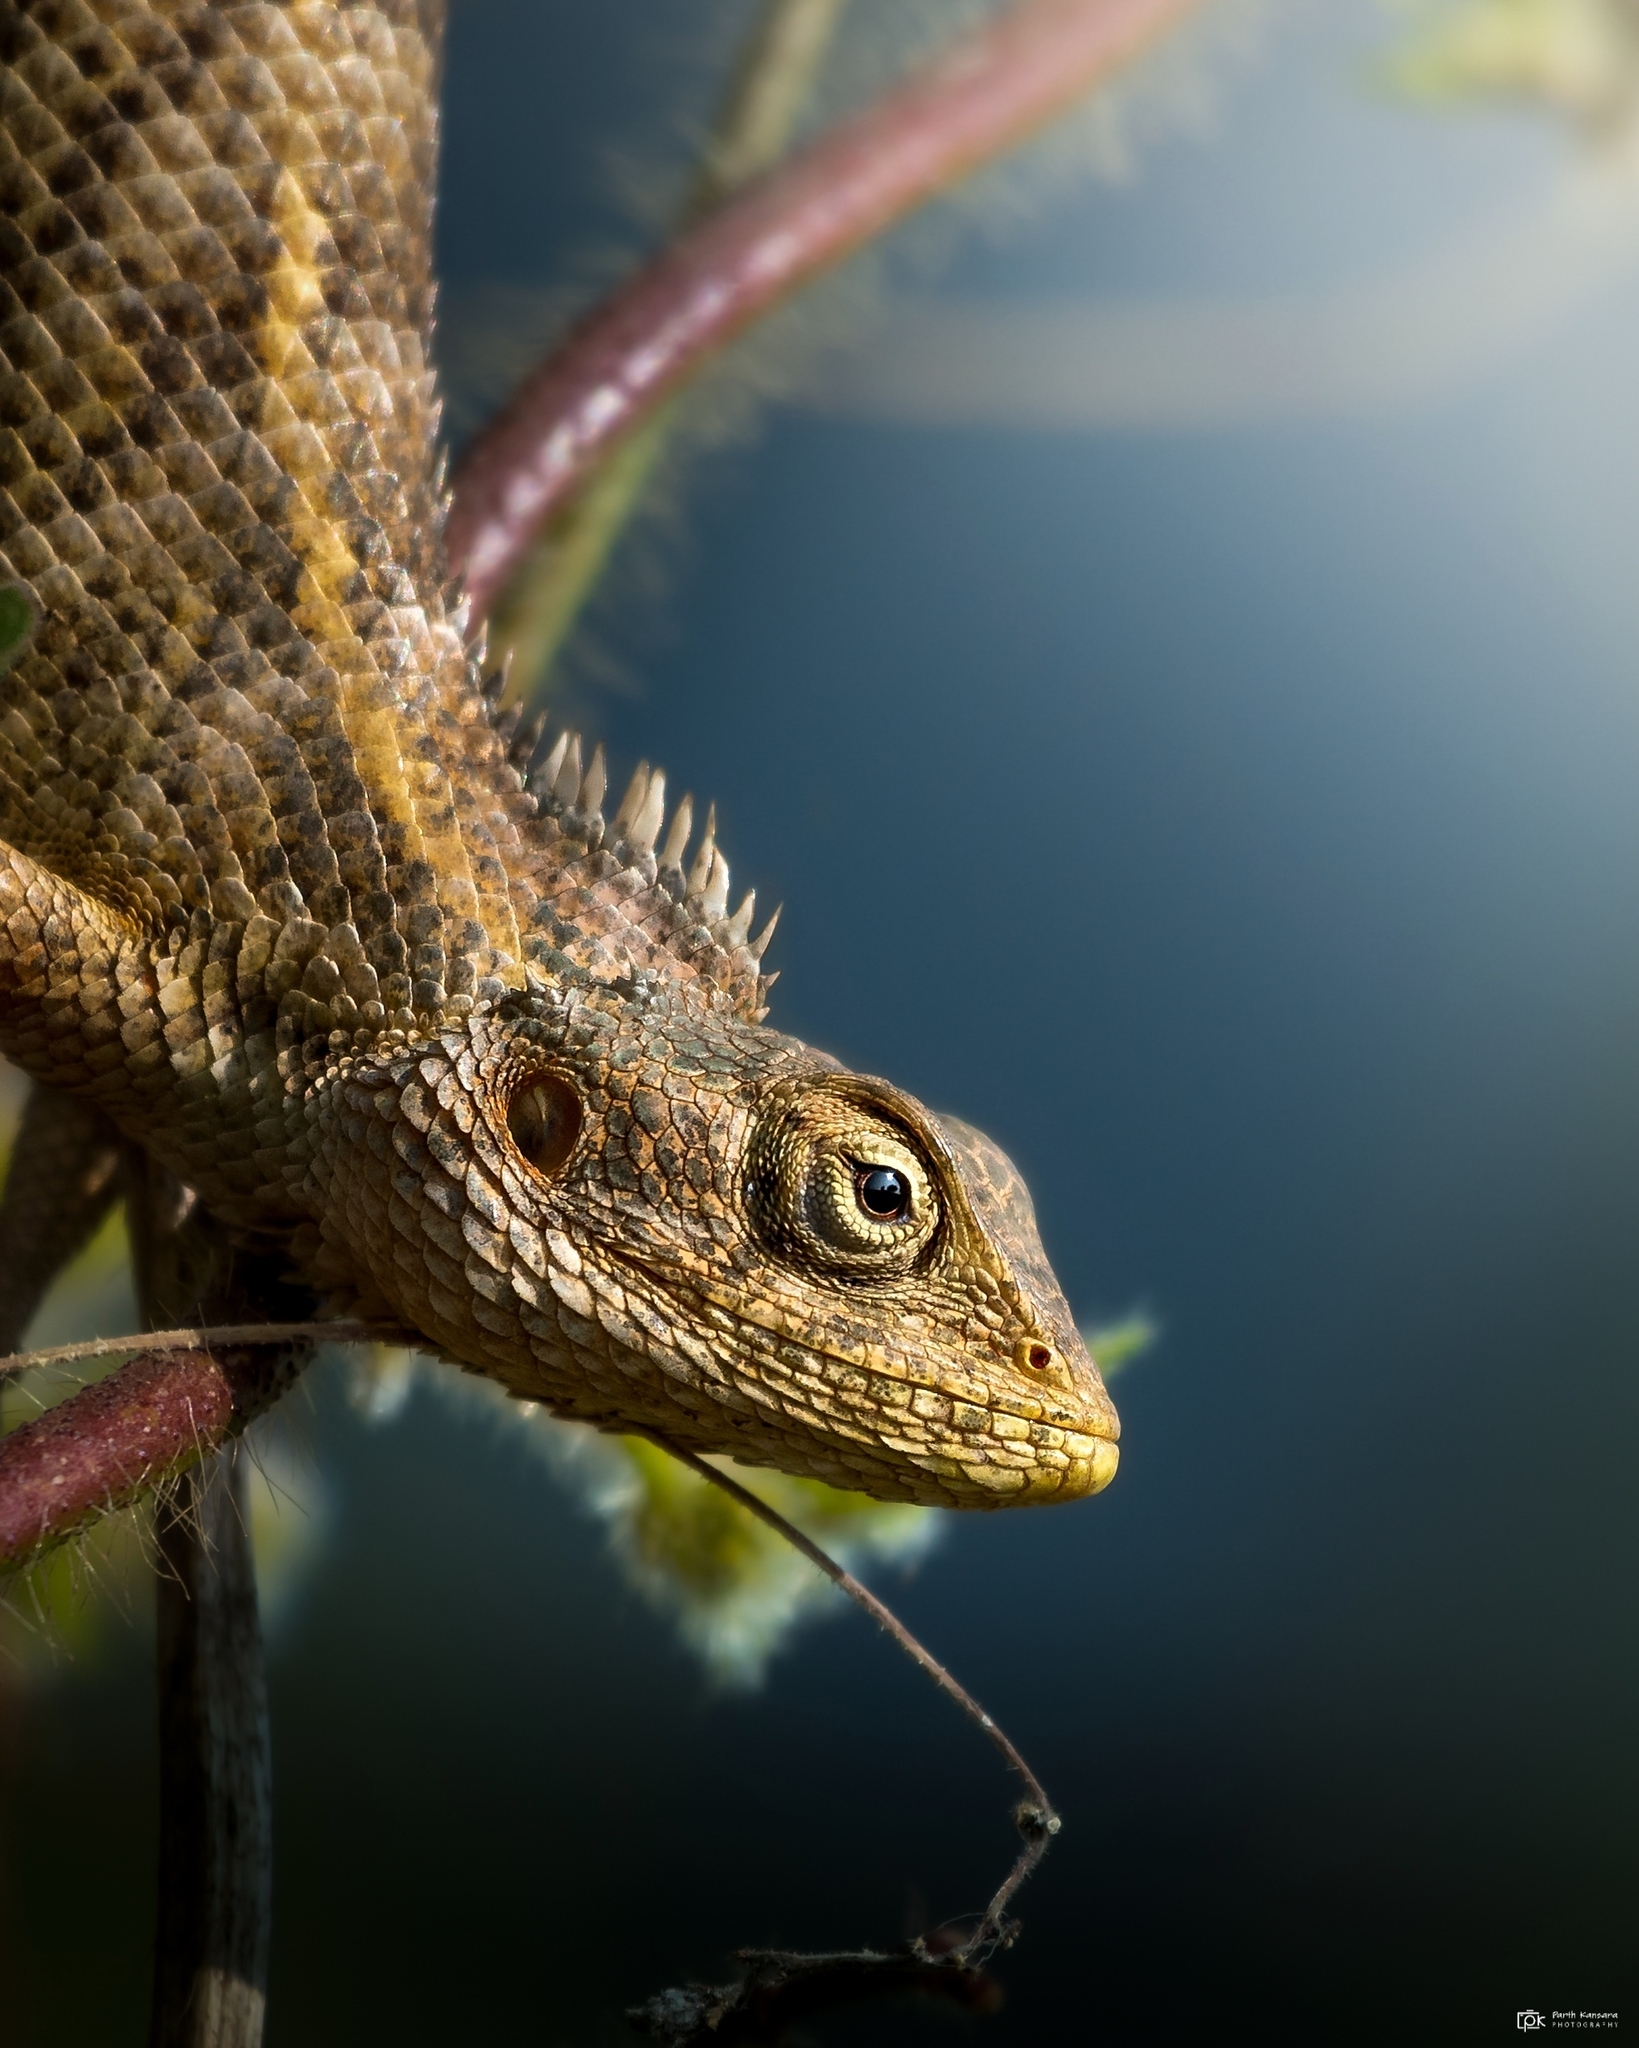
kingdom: Animalia
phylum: Chordata
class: Squamata
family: Agamidae
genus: Calotes
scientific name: Calotes versicolor
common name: Oriental garden lizard
